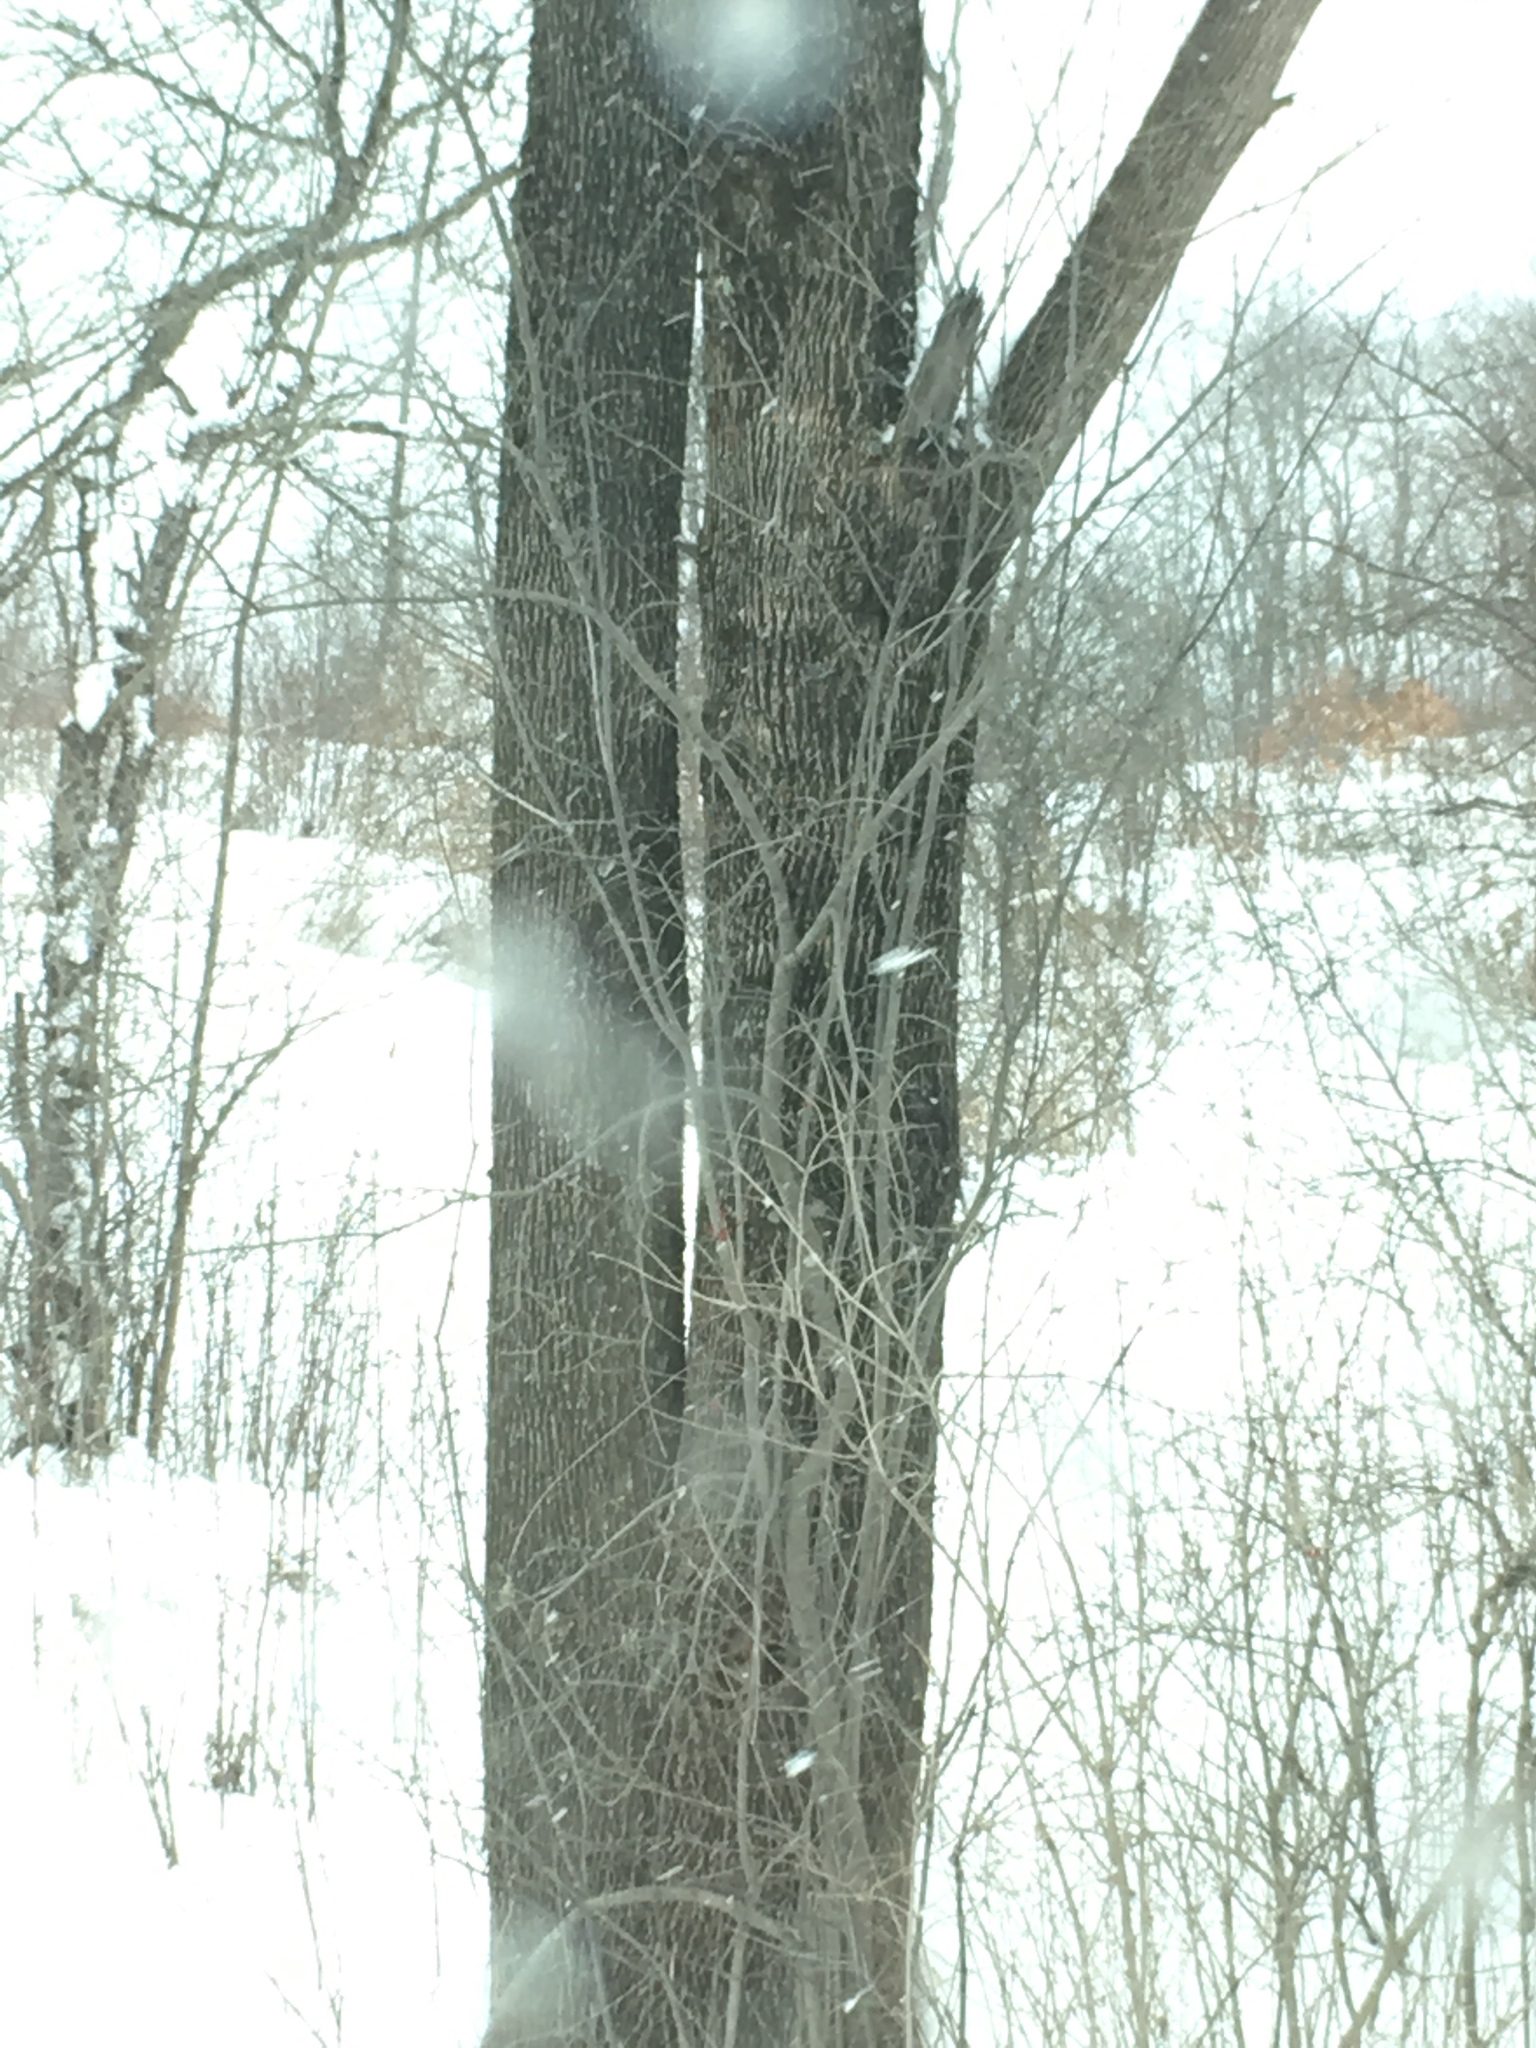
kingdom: Plantae
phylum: Tracheophyta
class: Magnoliopsida
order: Lamiales
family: Oleaceae
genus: Fraxinus
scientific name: Fraxinus americana
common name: White ash
